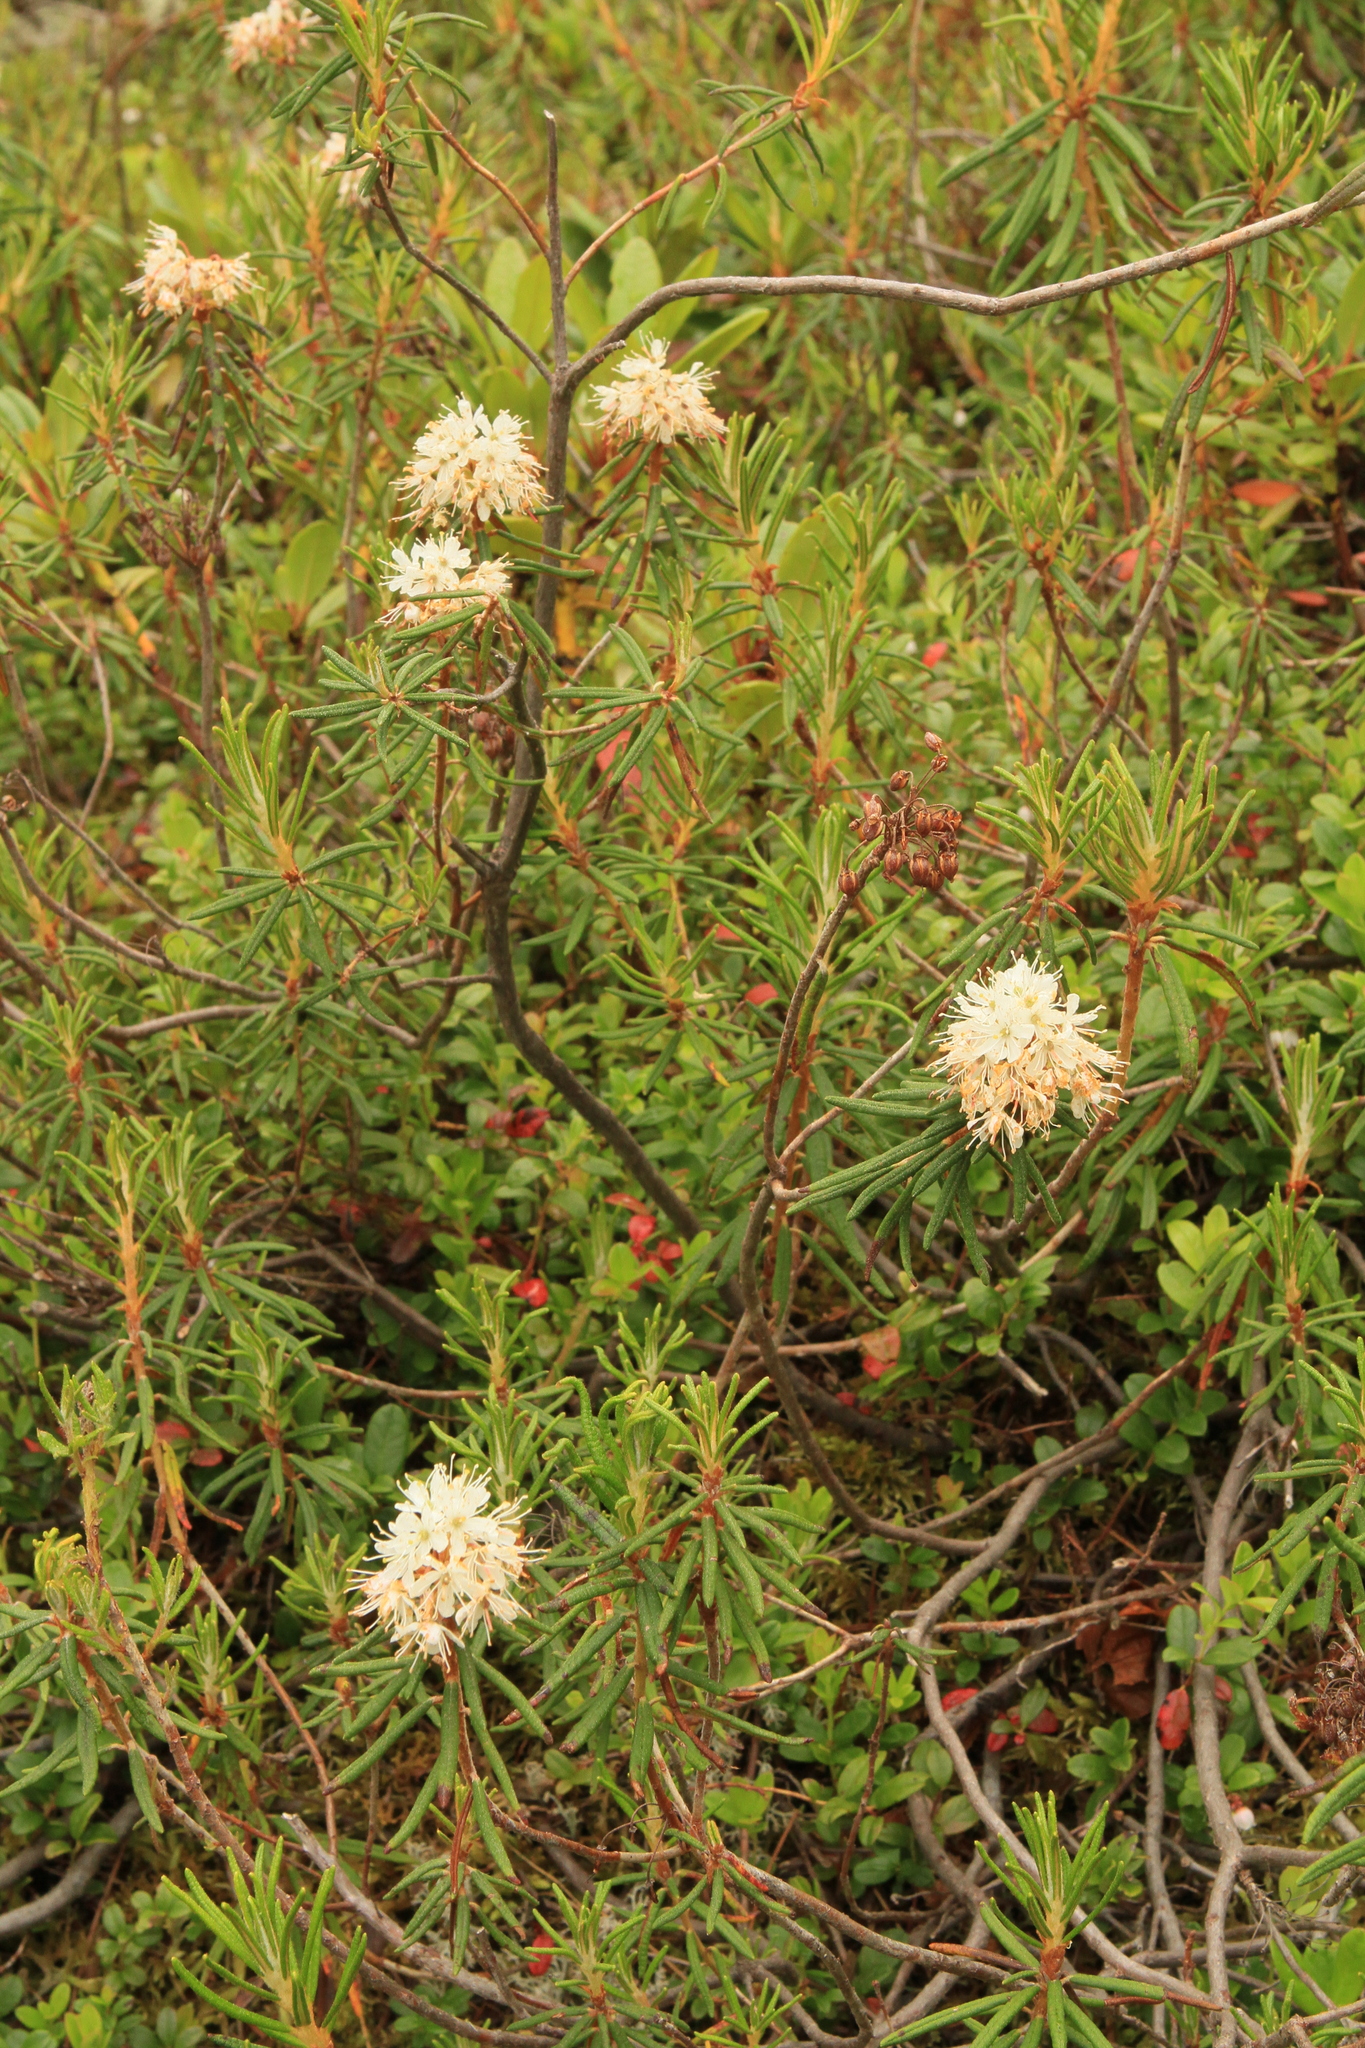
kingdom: Plantae
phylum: Tracheophyta
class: Magnoliopsida
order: Ericales
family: Ericaceae
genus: Rhododendron
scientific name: Rhododendron tomentosum
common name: Marsh labrador tea
